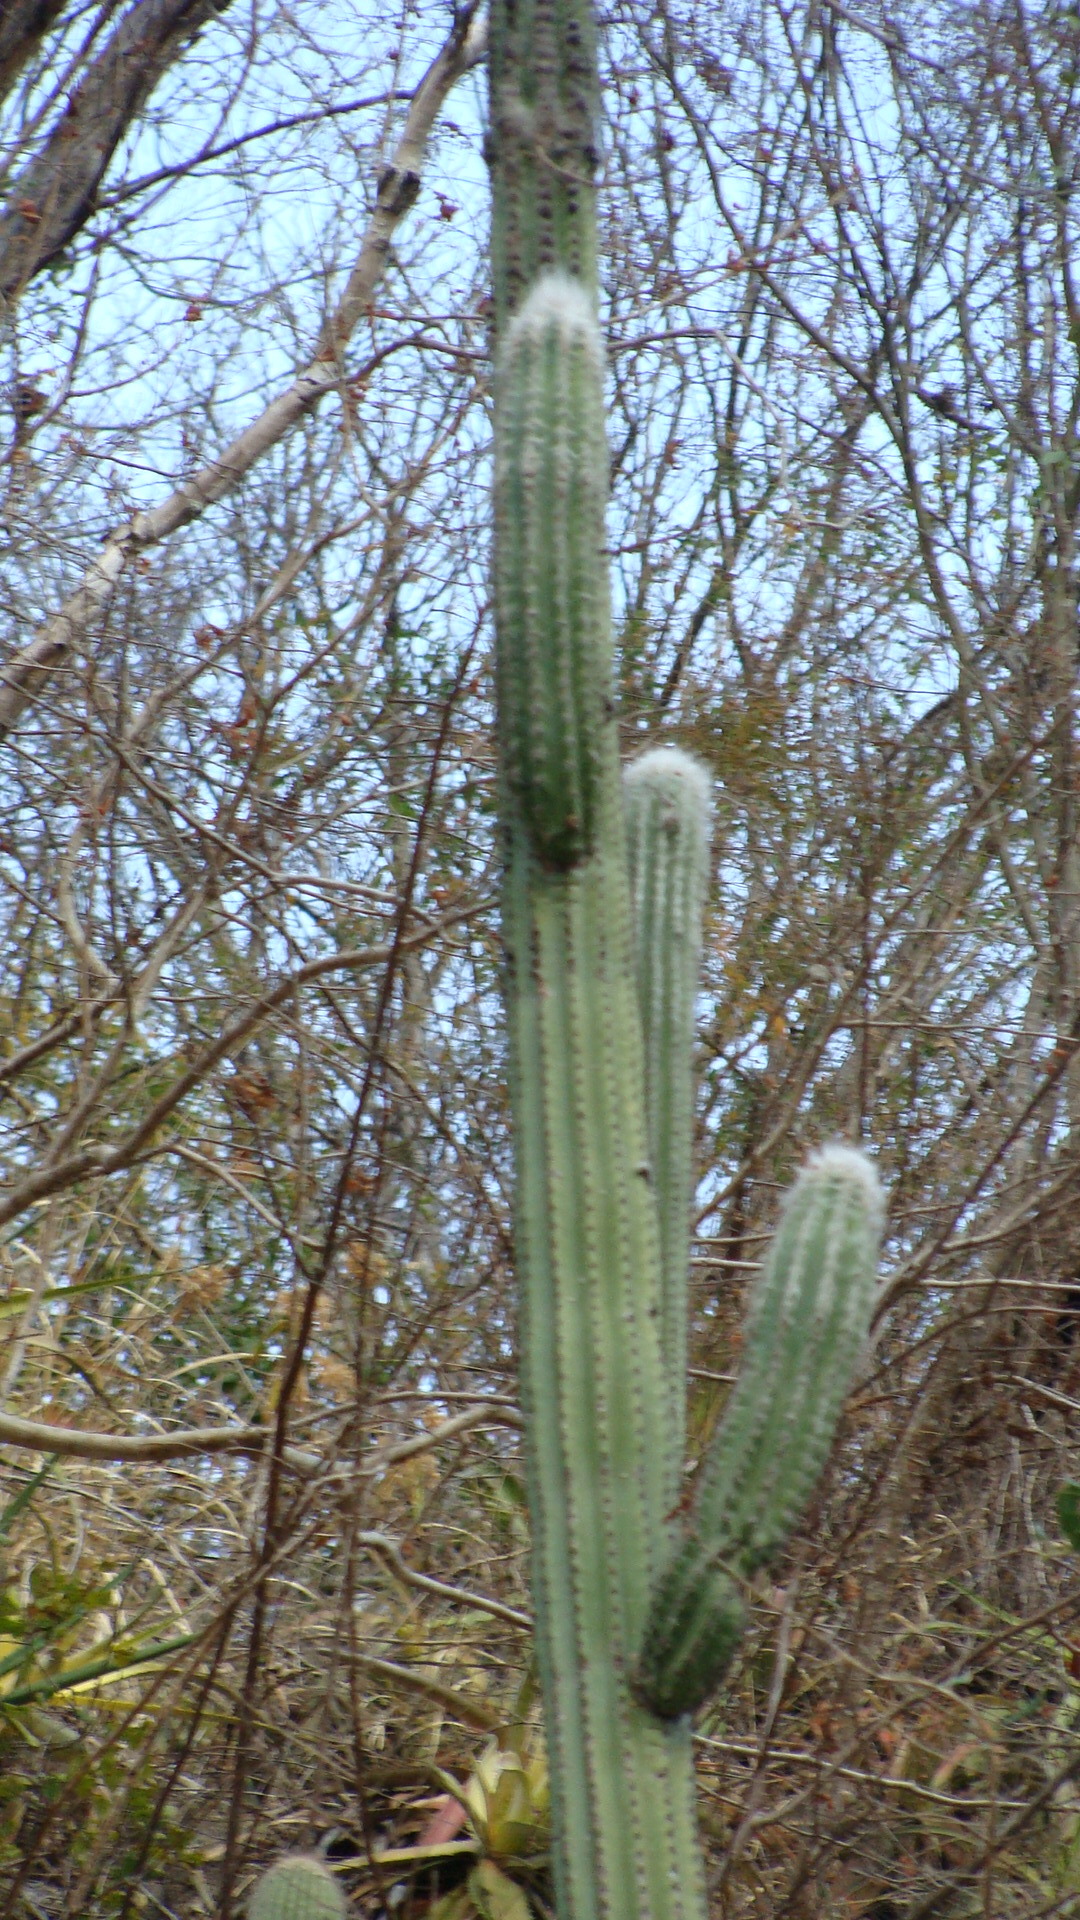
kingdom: Plantae
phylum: Tracheophyta
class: Magnoliopsida
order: Caryophyllales
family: Cactaceae
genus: Pilosocereus
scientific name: Pilosocereus quadricentralis
